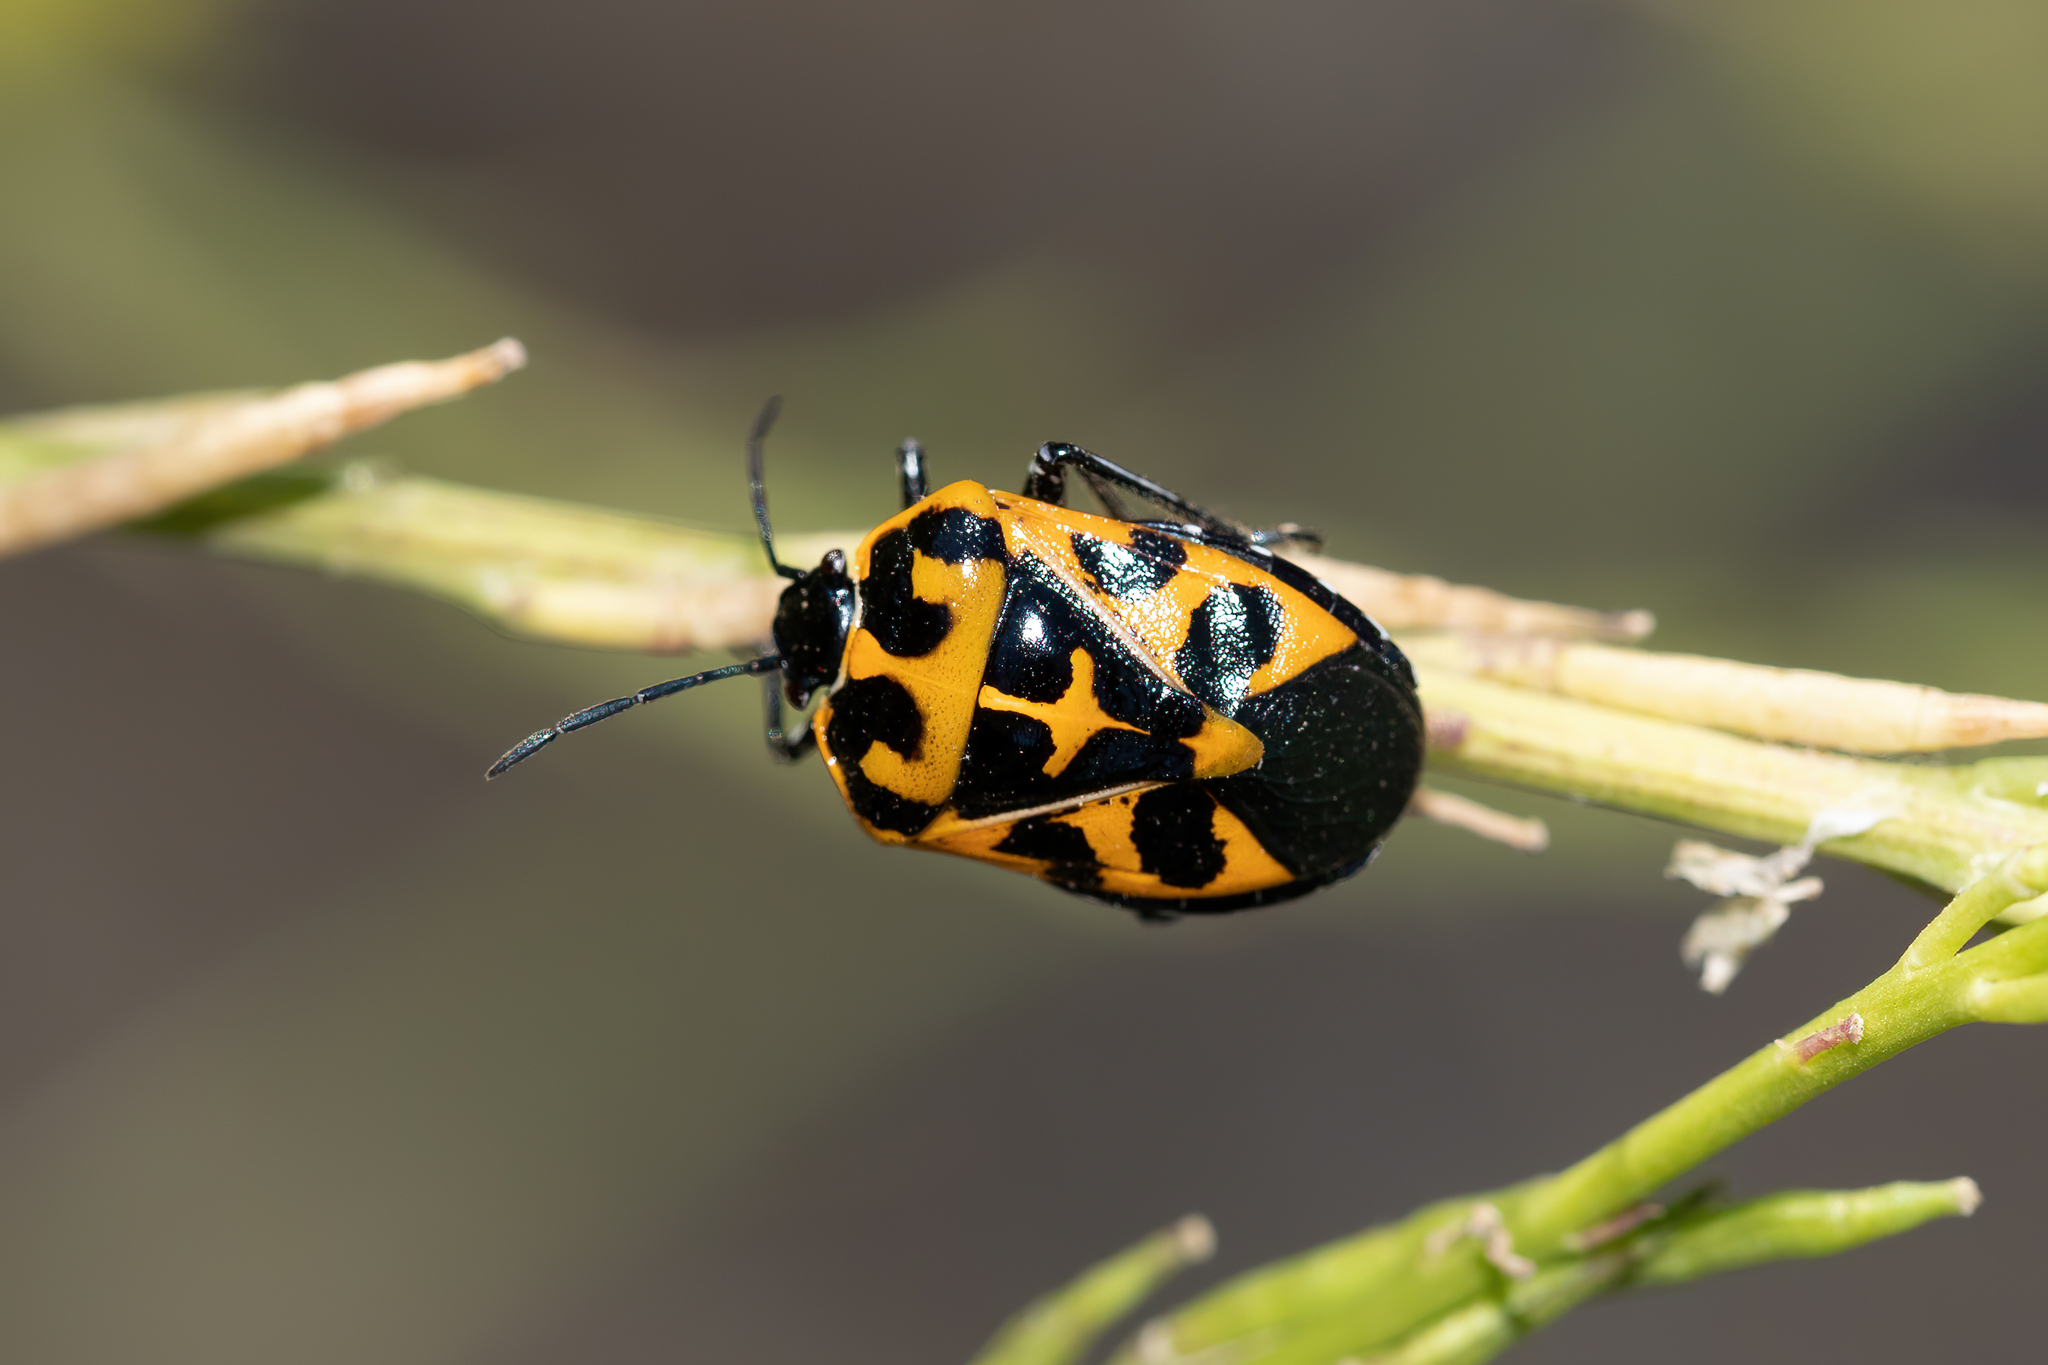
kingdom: Animalia
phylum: Arthropoda
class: Insecta
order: Hemiptera
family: Pentatomidae
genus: Murgantia
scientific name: Murgantia histrionica
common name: Harlequin bug
